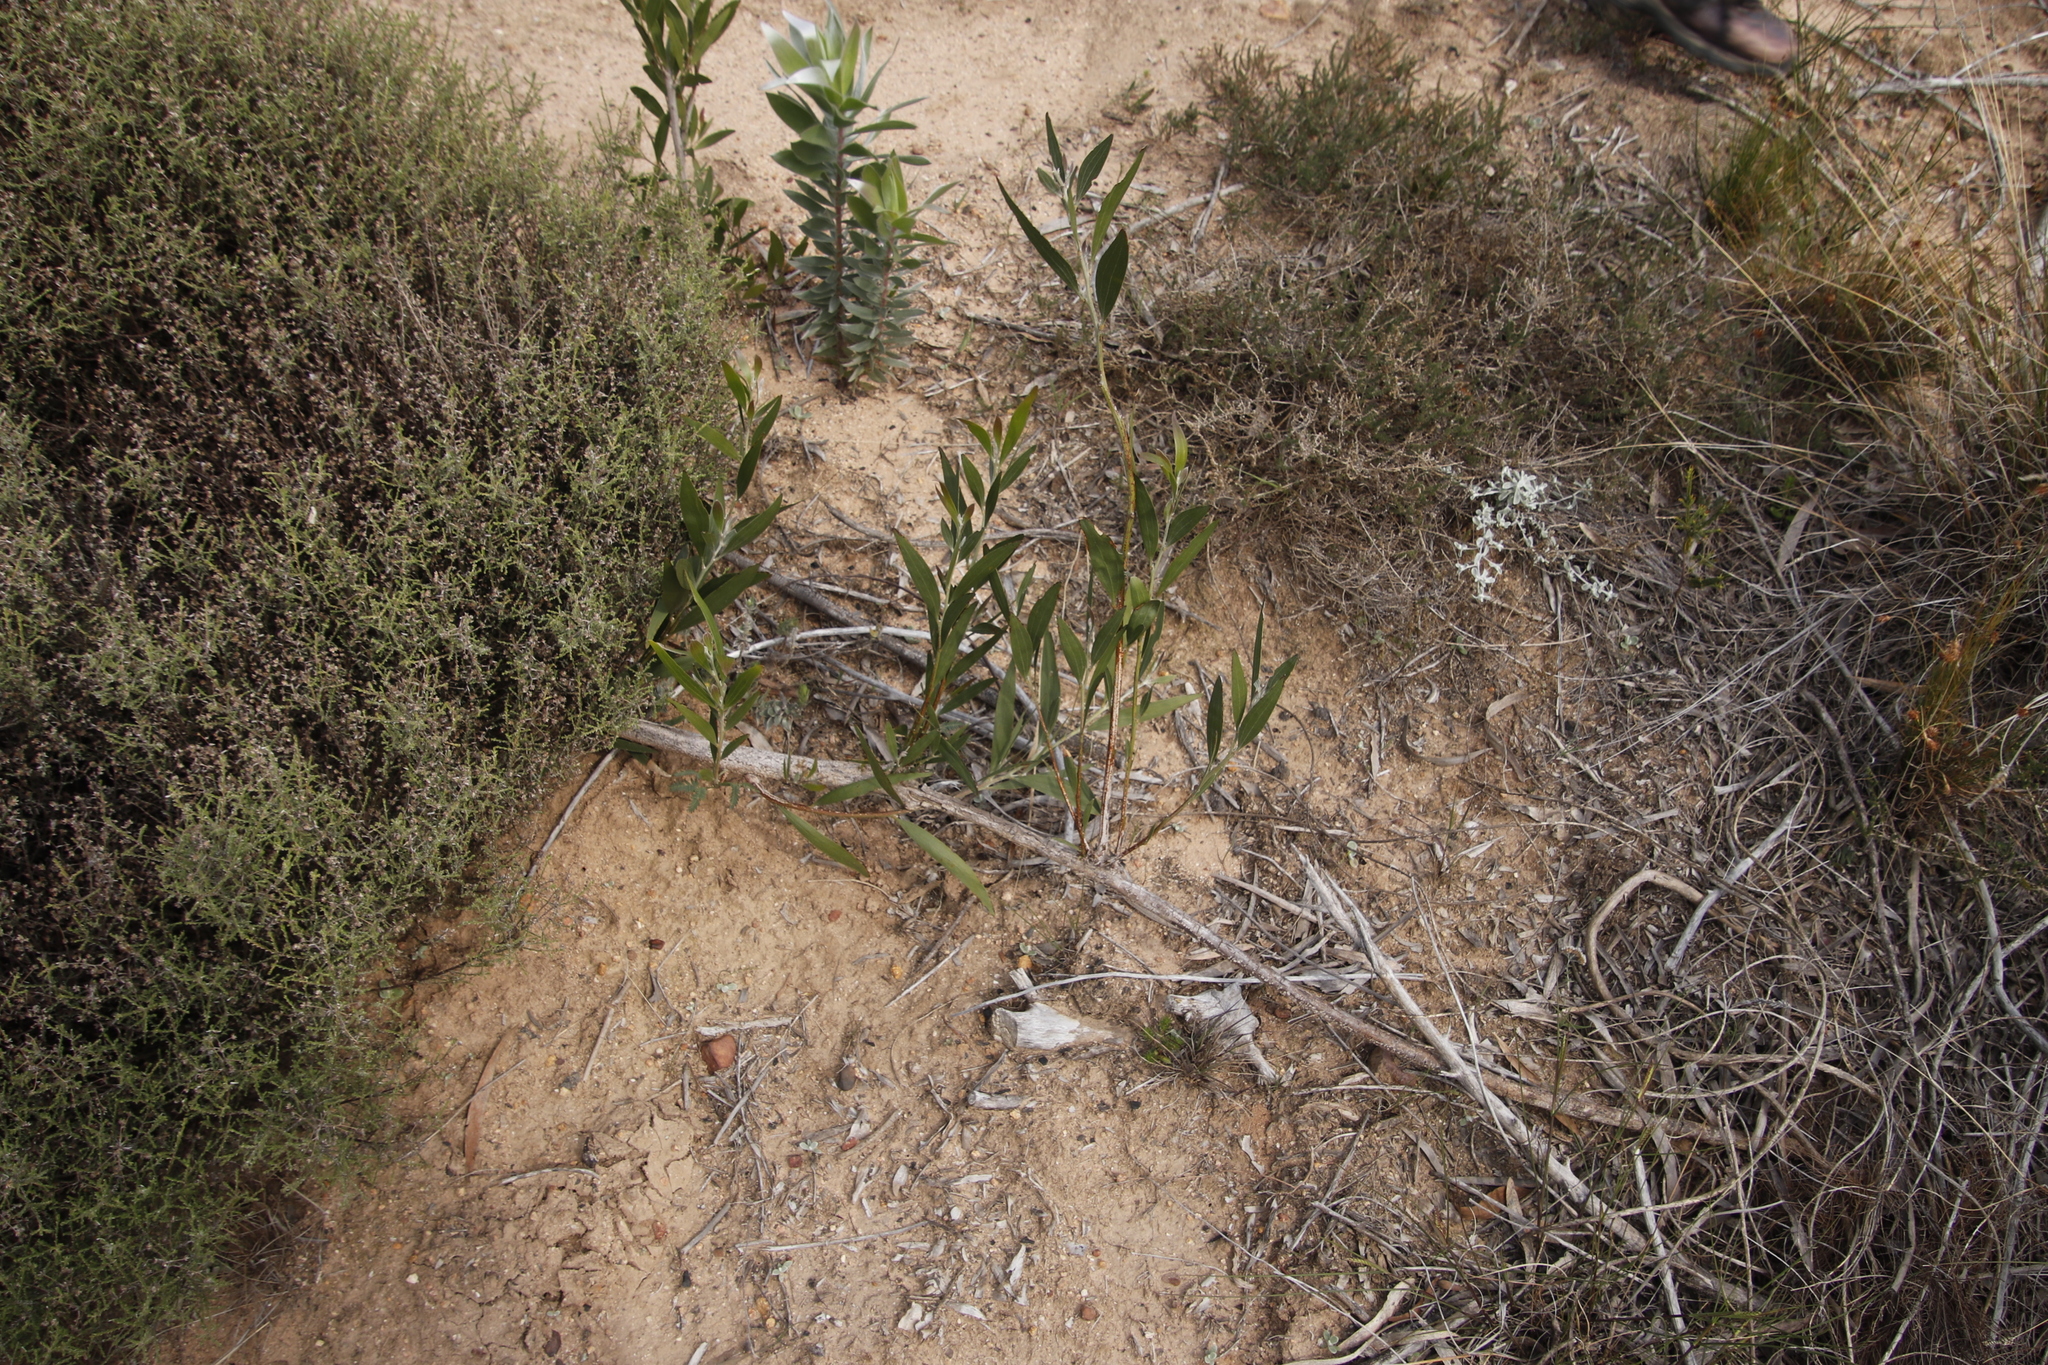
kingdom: Plantae
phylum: Tracheophyta
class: Magnoliopsida
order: Fabales
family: Fabaceae
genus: Acacia
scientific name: Acacia melanoxylon
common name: Blackwood
